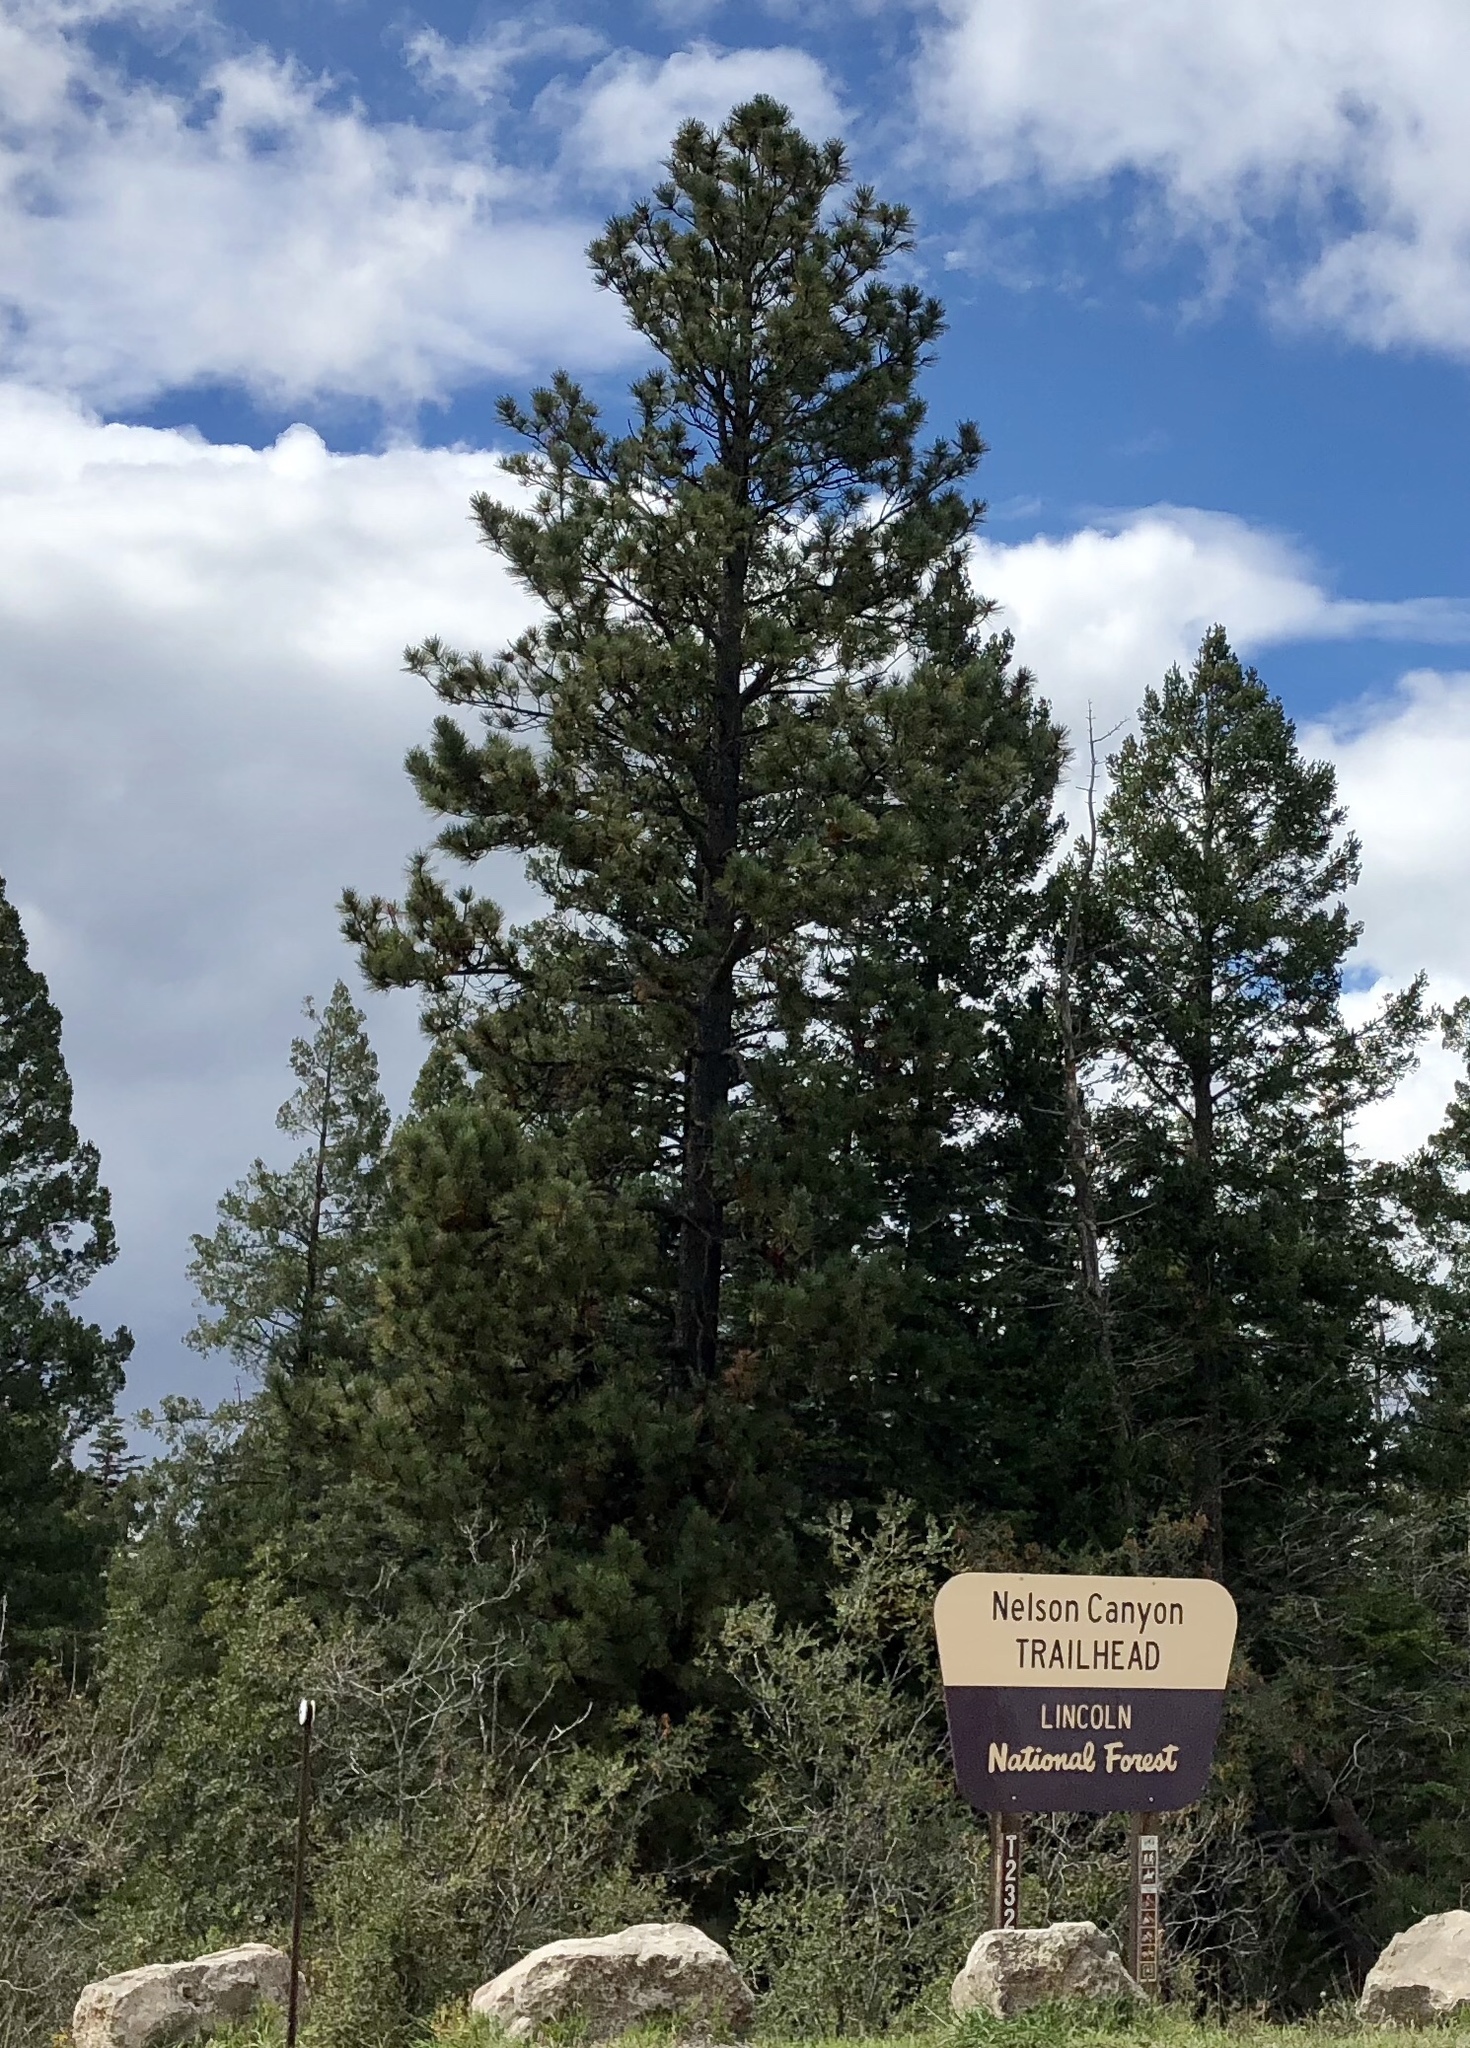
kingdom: Plantae
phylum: Tracheophyta
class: Pinopsida
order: Pinales
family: Pinaceae
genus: Pinus
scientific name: Pinus ponderosa
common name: Western yellow-pine
